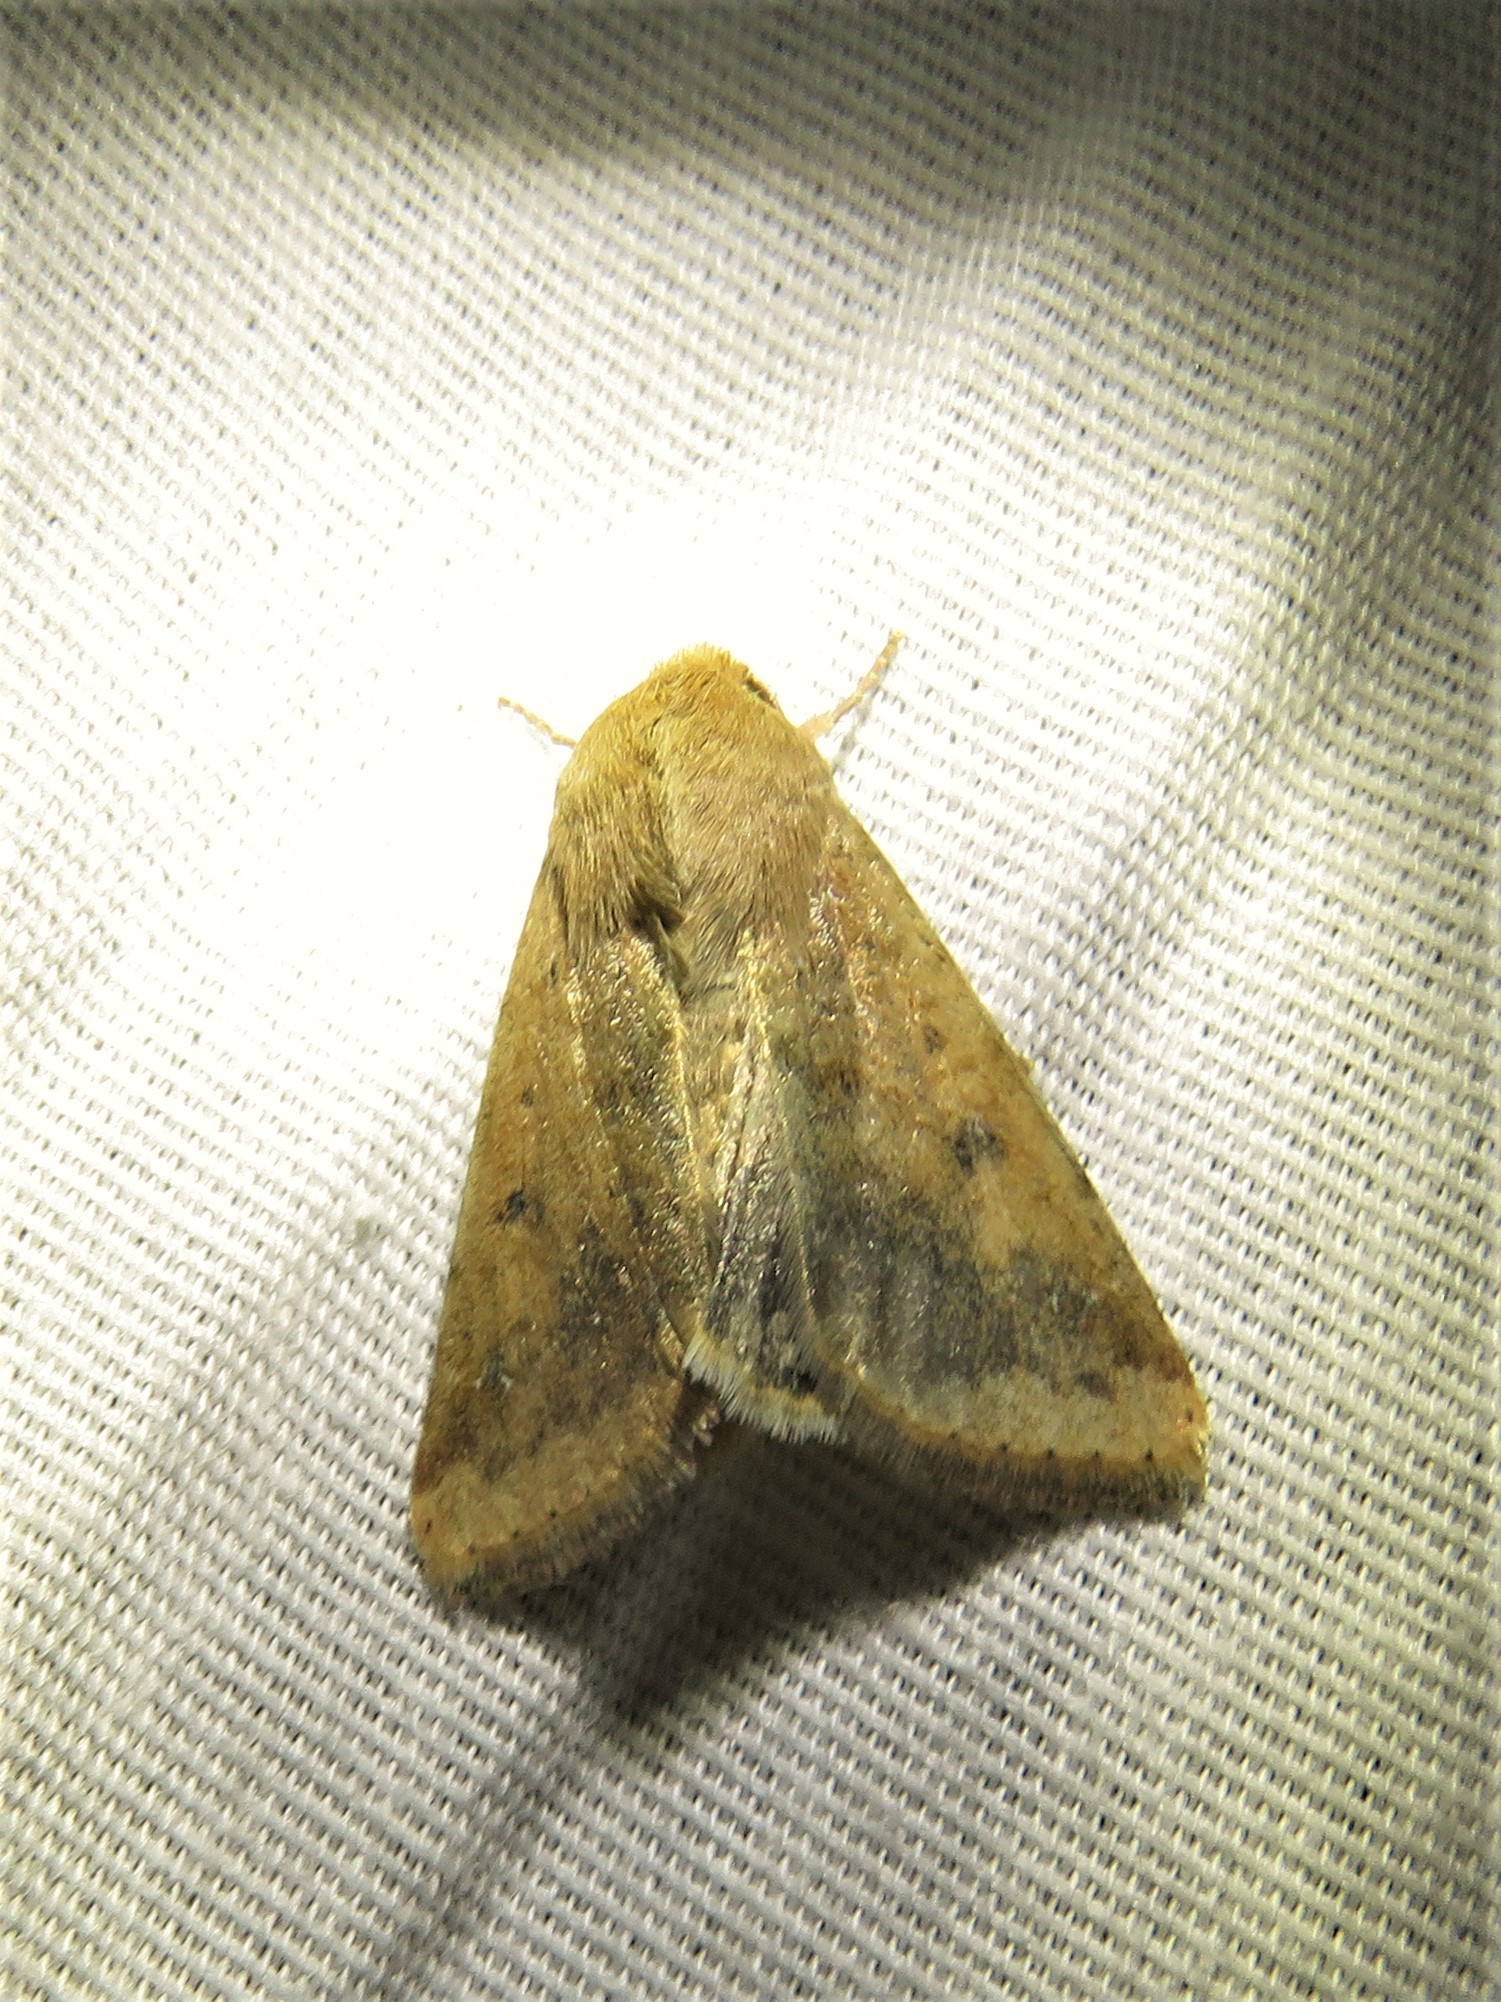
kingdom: Animalia
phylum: Arthropoda
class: Insecta
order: Lepidoptera
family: Noctuidae
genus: Helicoverpa
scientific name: Helicoverpa zea
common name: Bollworm
